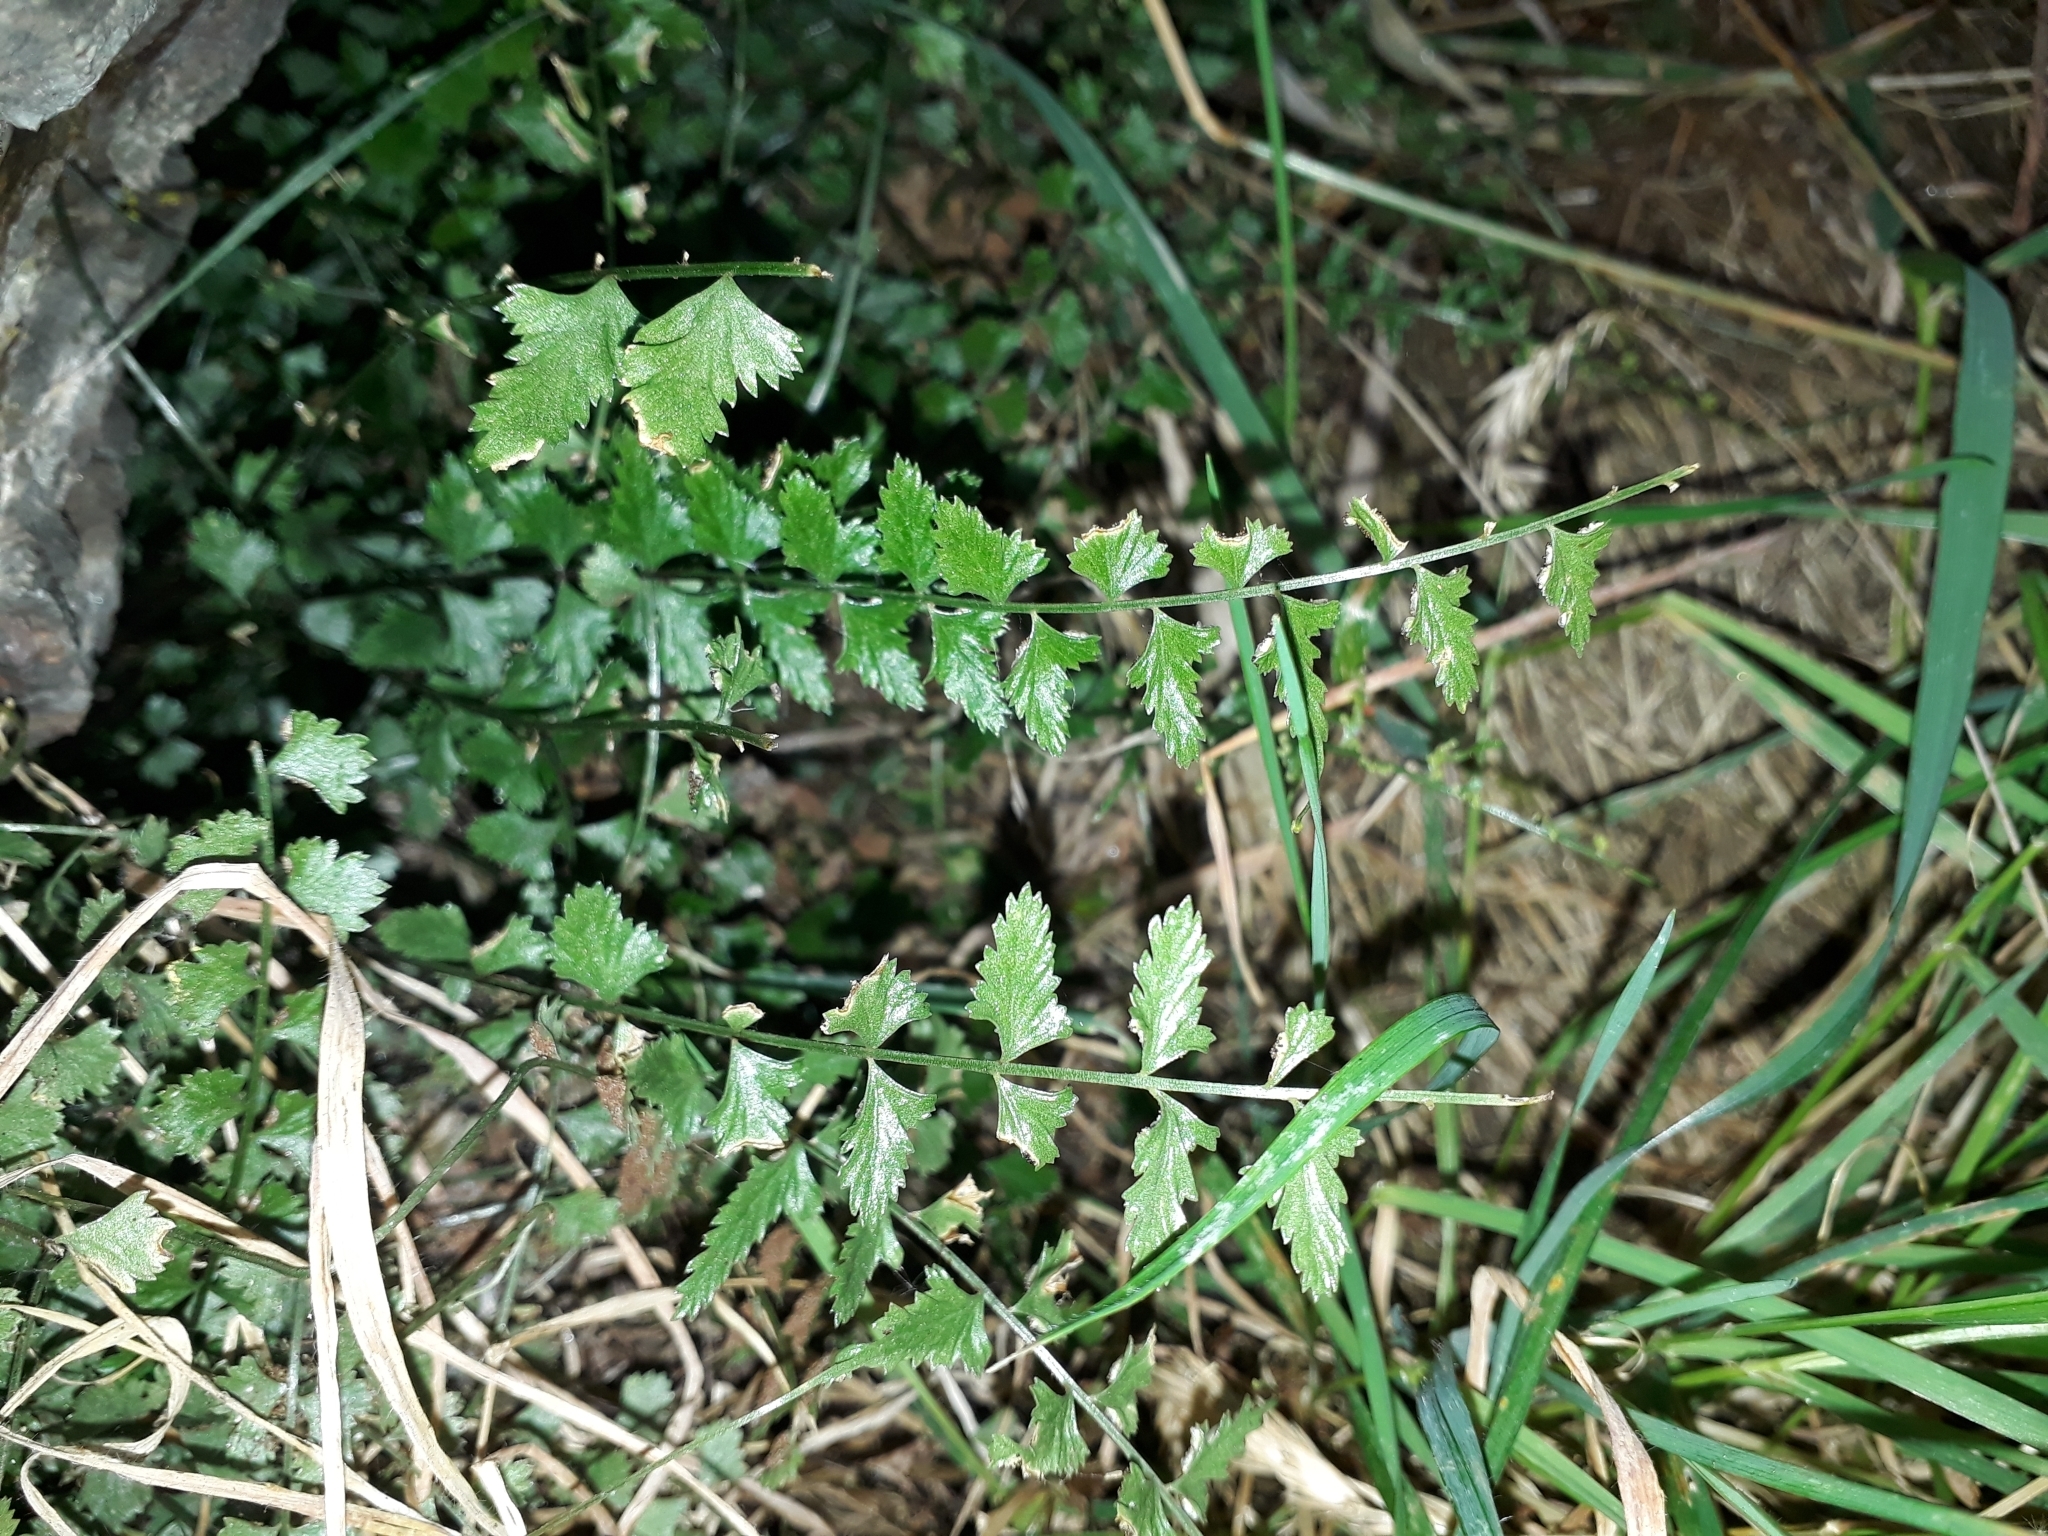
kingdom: Plantae
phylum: Tracheophyta
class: Polypodiopsida
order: Polypodiales
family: Aspleniaceae
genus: Asplenium
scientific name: Asplenium flabellifolium
